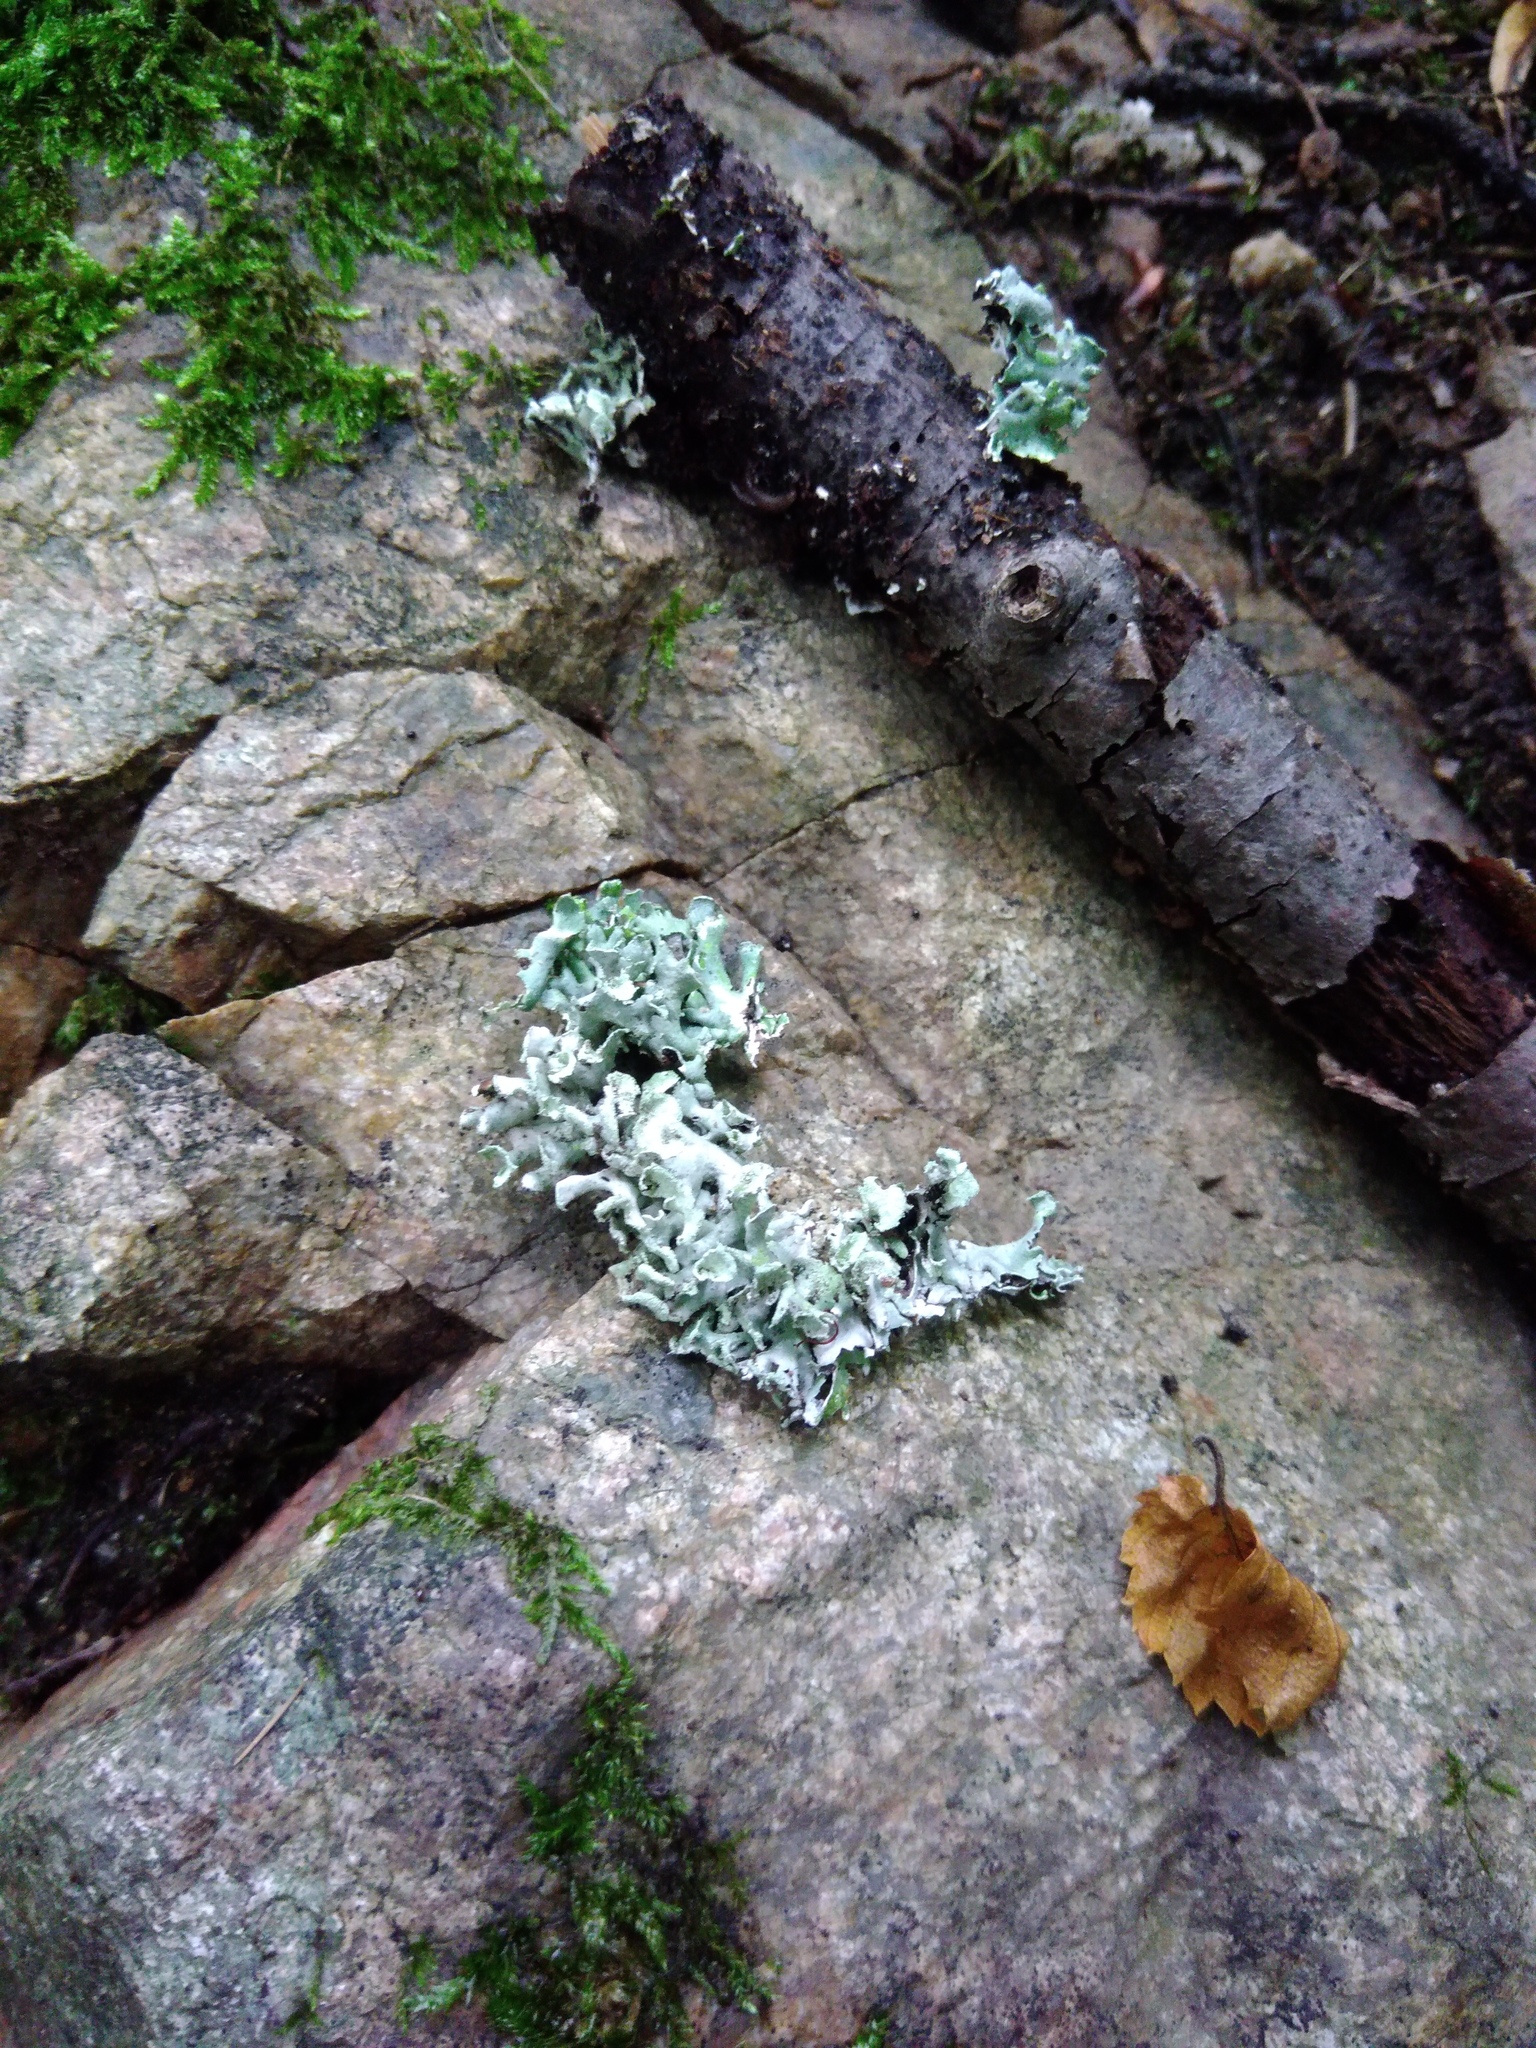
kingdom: Fungi
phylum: Ascomycota
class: Lecanoromycetes
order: Lecanorales
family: Parmeliaceae
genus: Hypogymnia
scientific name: Hypogymnia physodes
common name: Dark crottle
